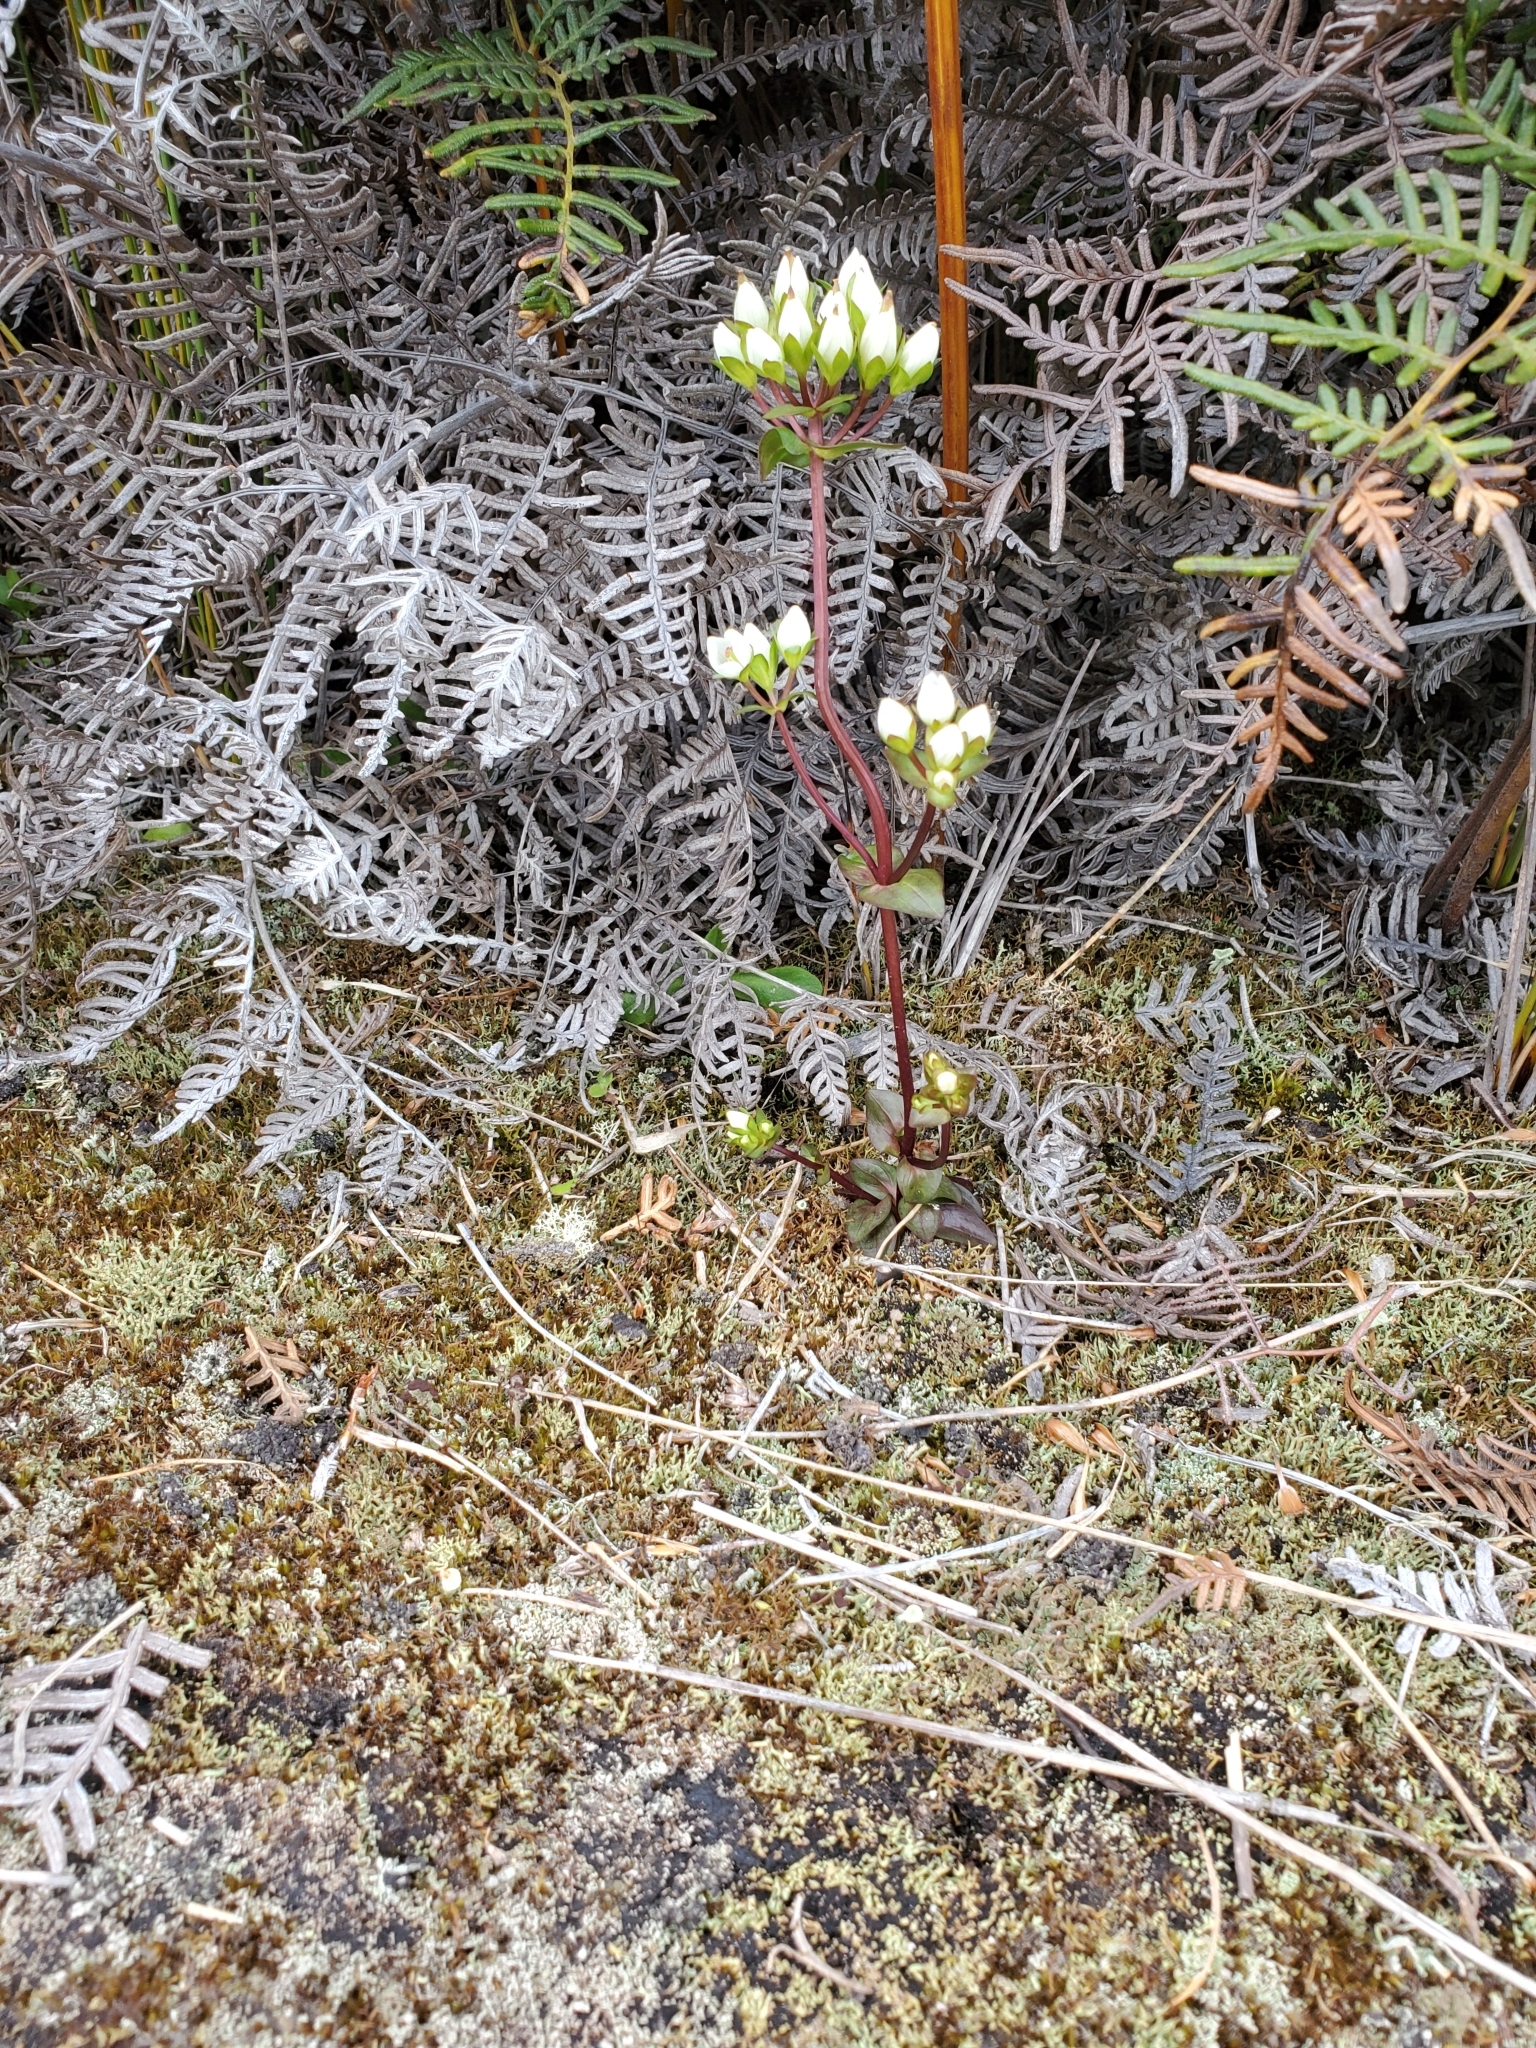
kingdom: Plantae
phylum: Tracheophyta
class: Magnoliopsida
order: Gentianales
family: Gentianaceae
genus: Gentianella
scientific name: Gentianella chathamica
